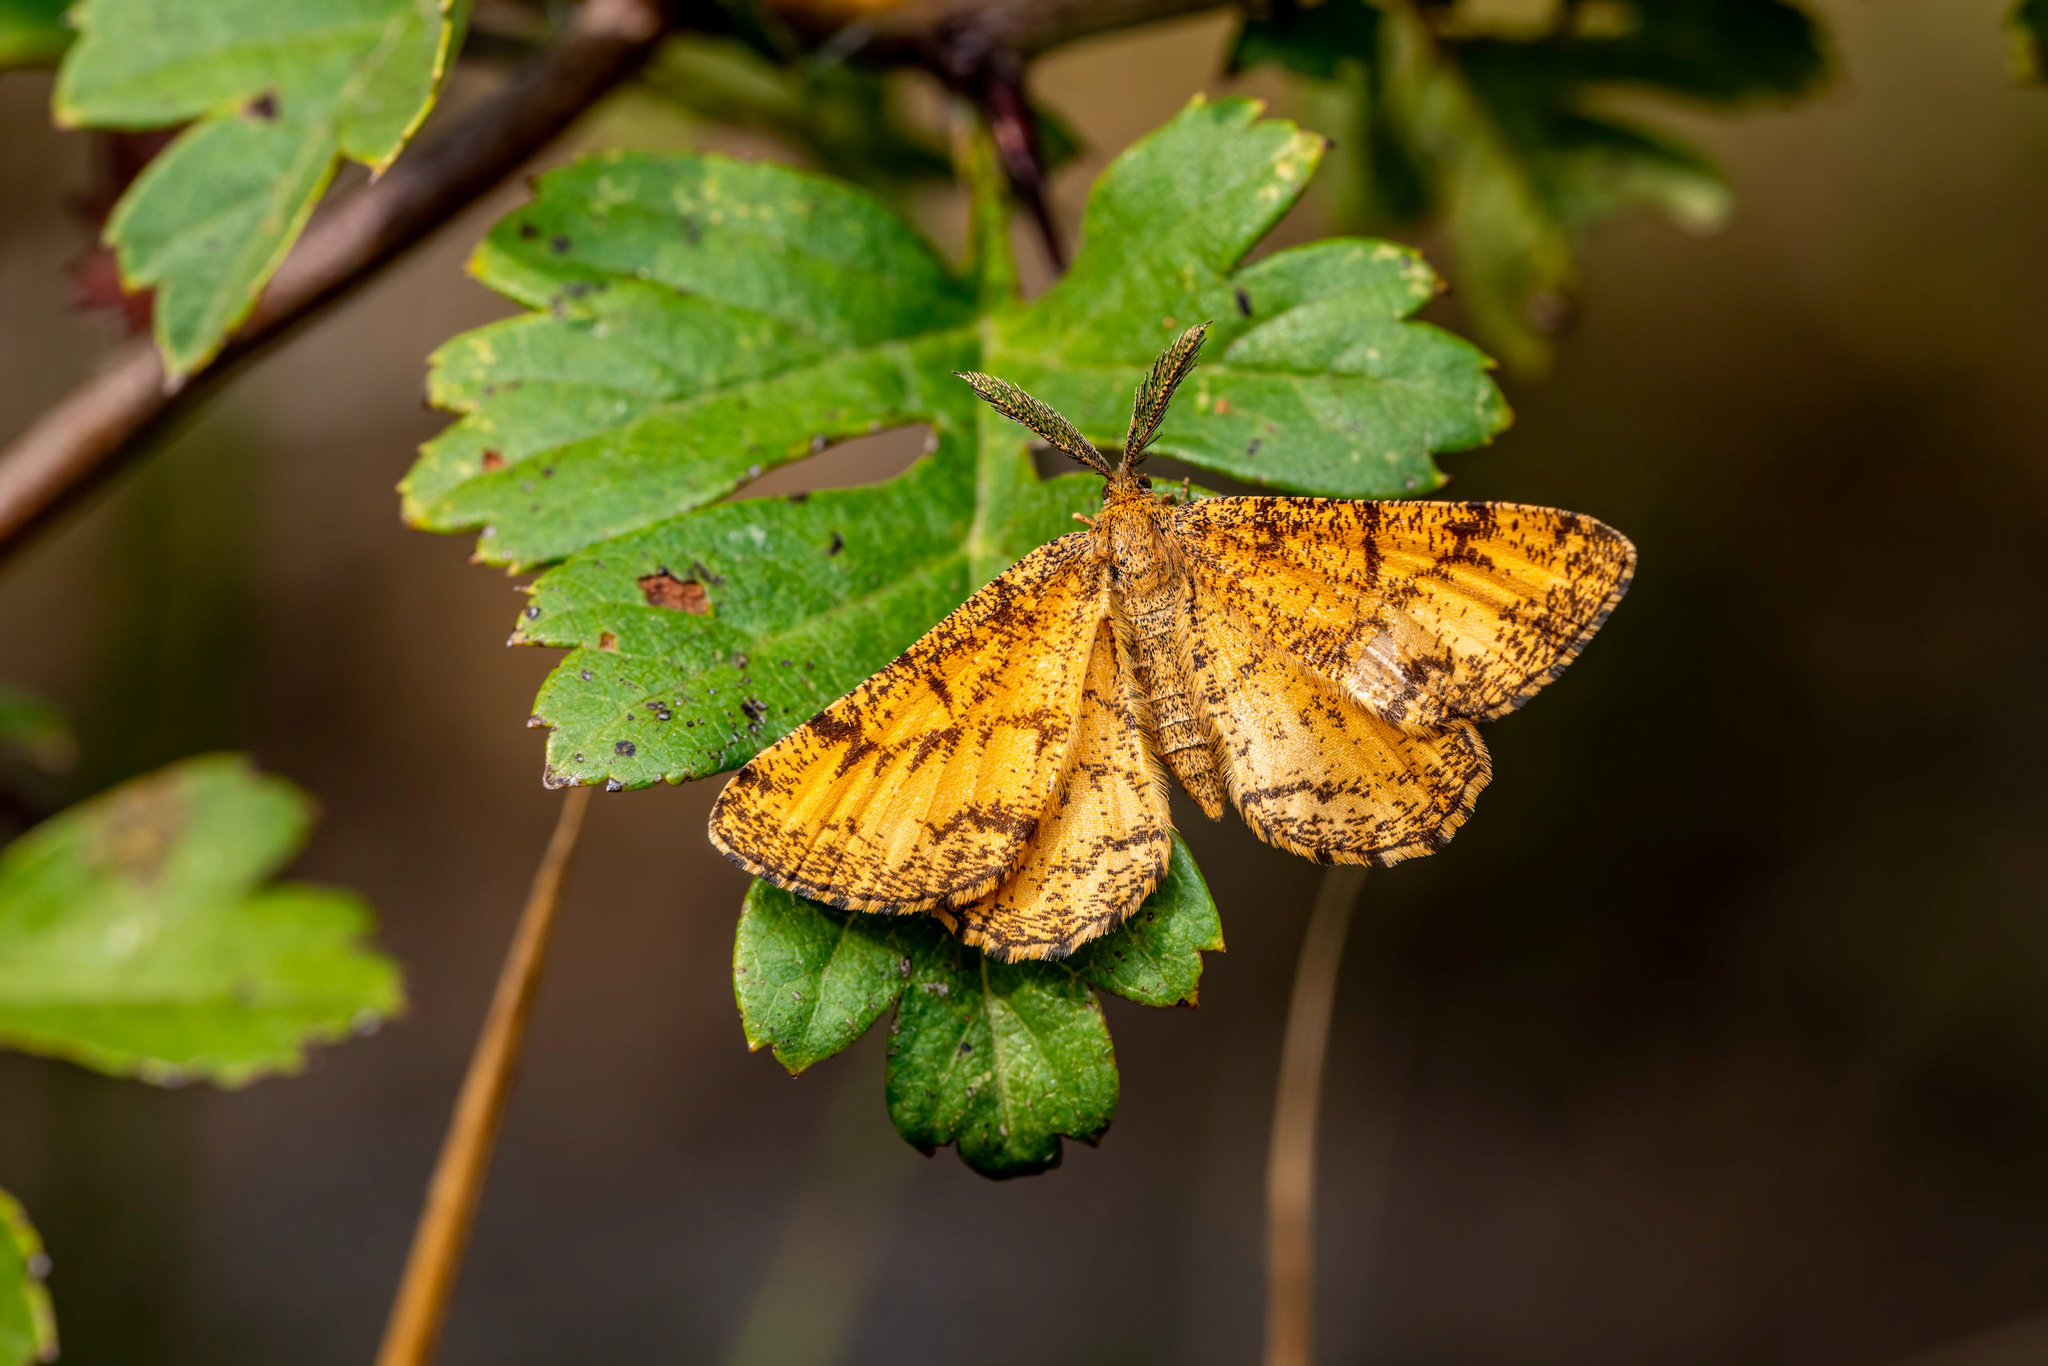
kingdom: Animalia
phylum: Arthropoda
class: Insecta
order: Lepidoptera
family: Geometridae
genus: Ematurga
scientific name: Ematurga atomaria
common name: Common heath
